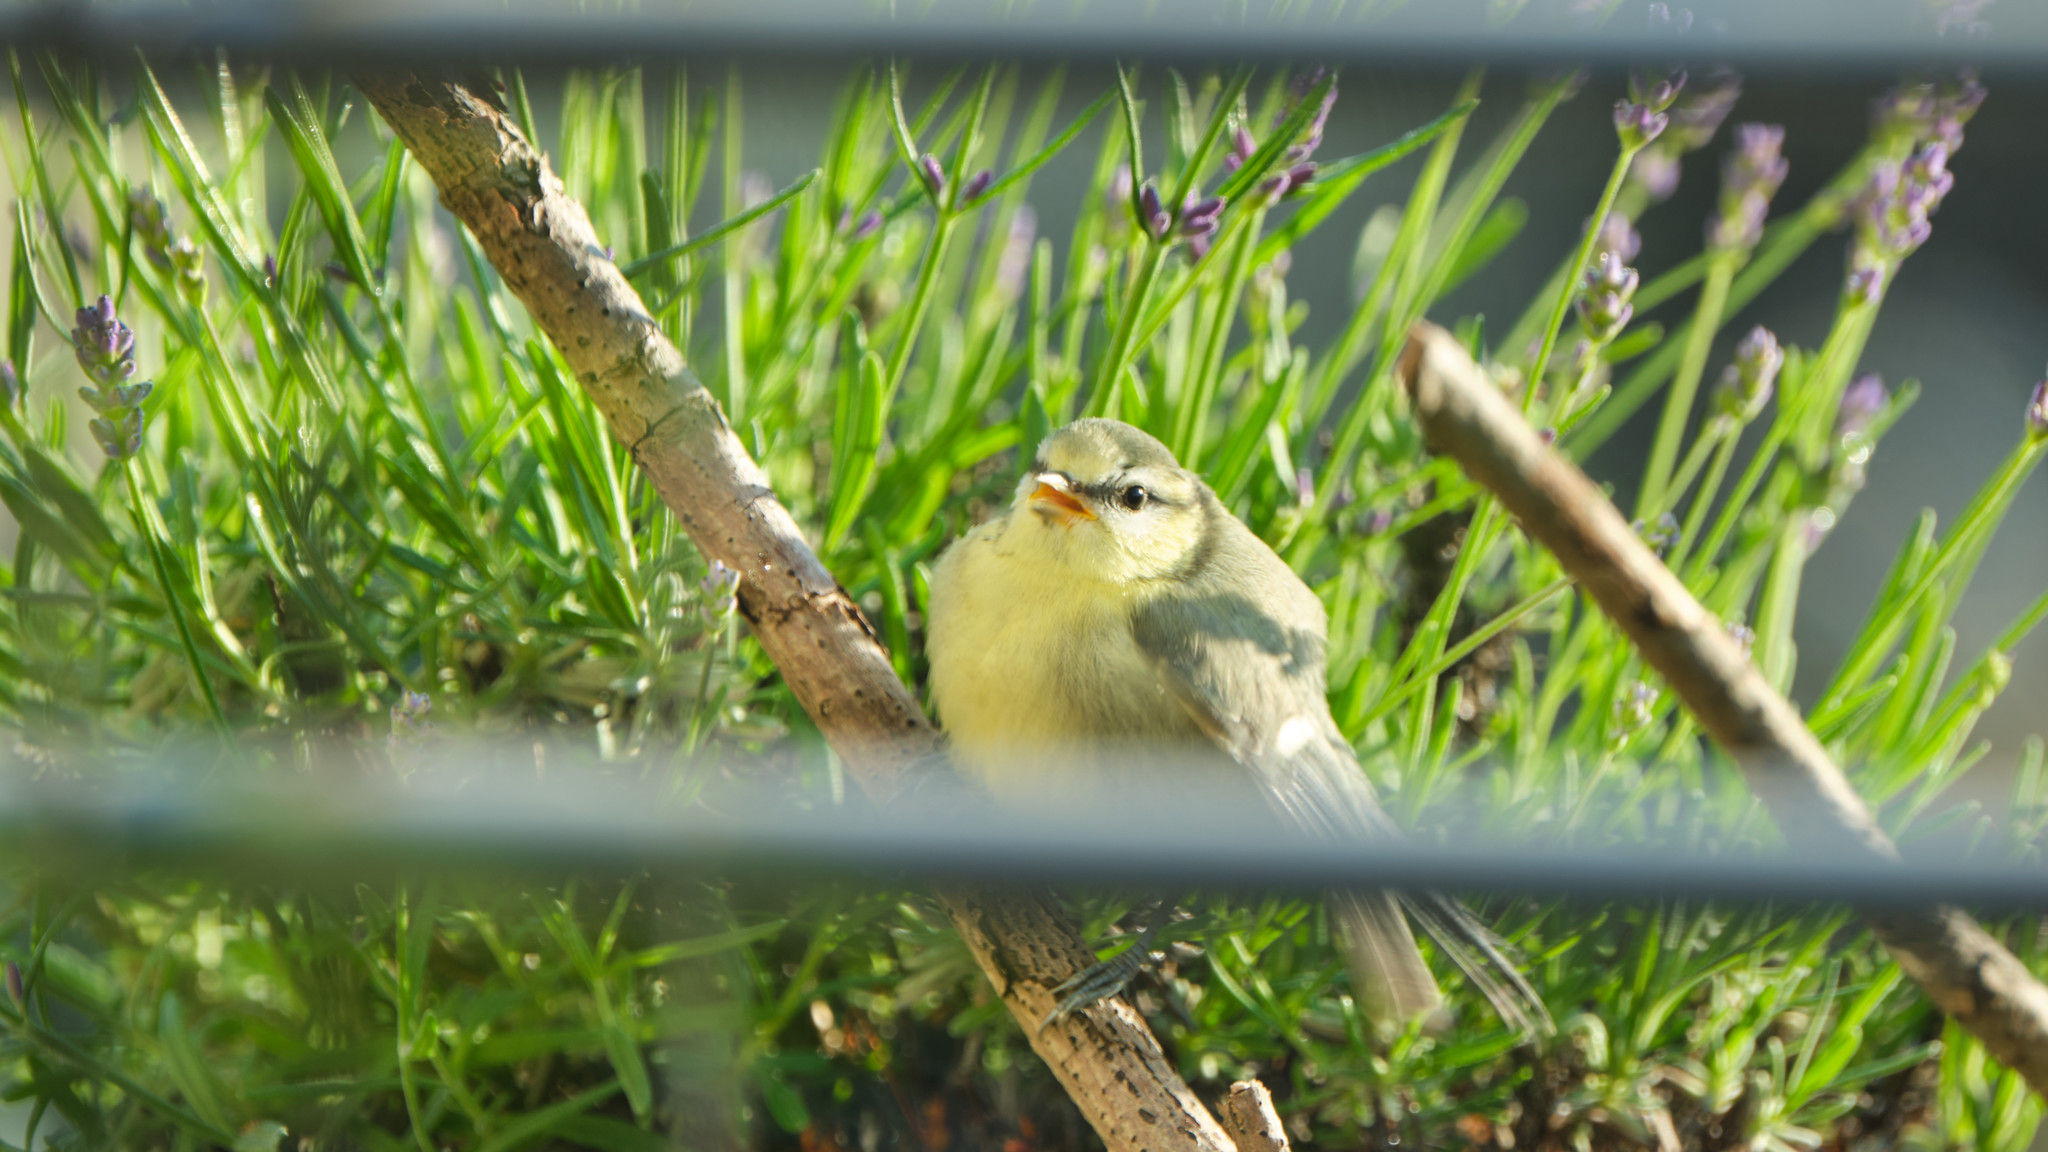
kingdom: Animalia
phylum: Chordata
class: Aves
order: Passeriformes
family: Paridae
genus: Cyanistes
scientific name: Cyanistes caeruleus
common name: Eurasian blue tit
